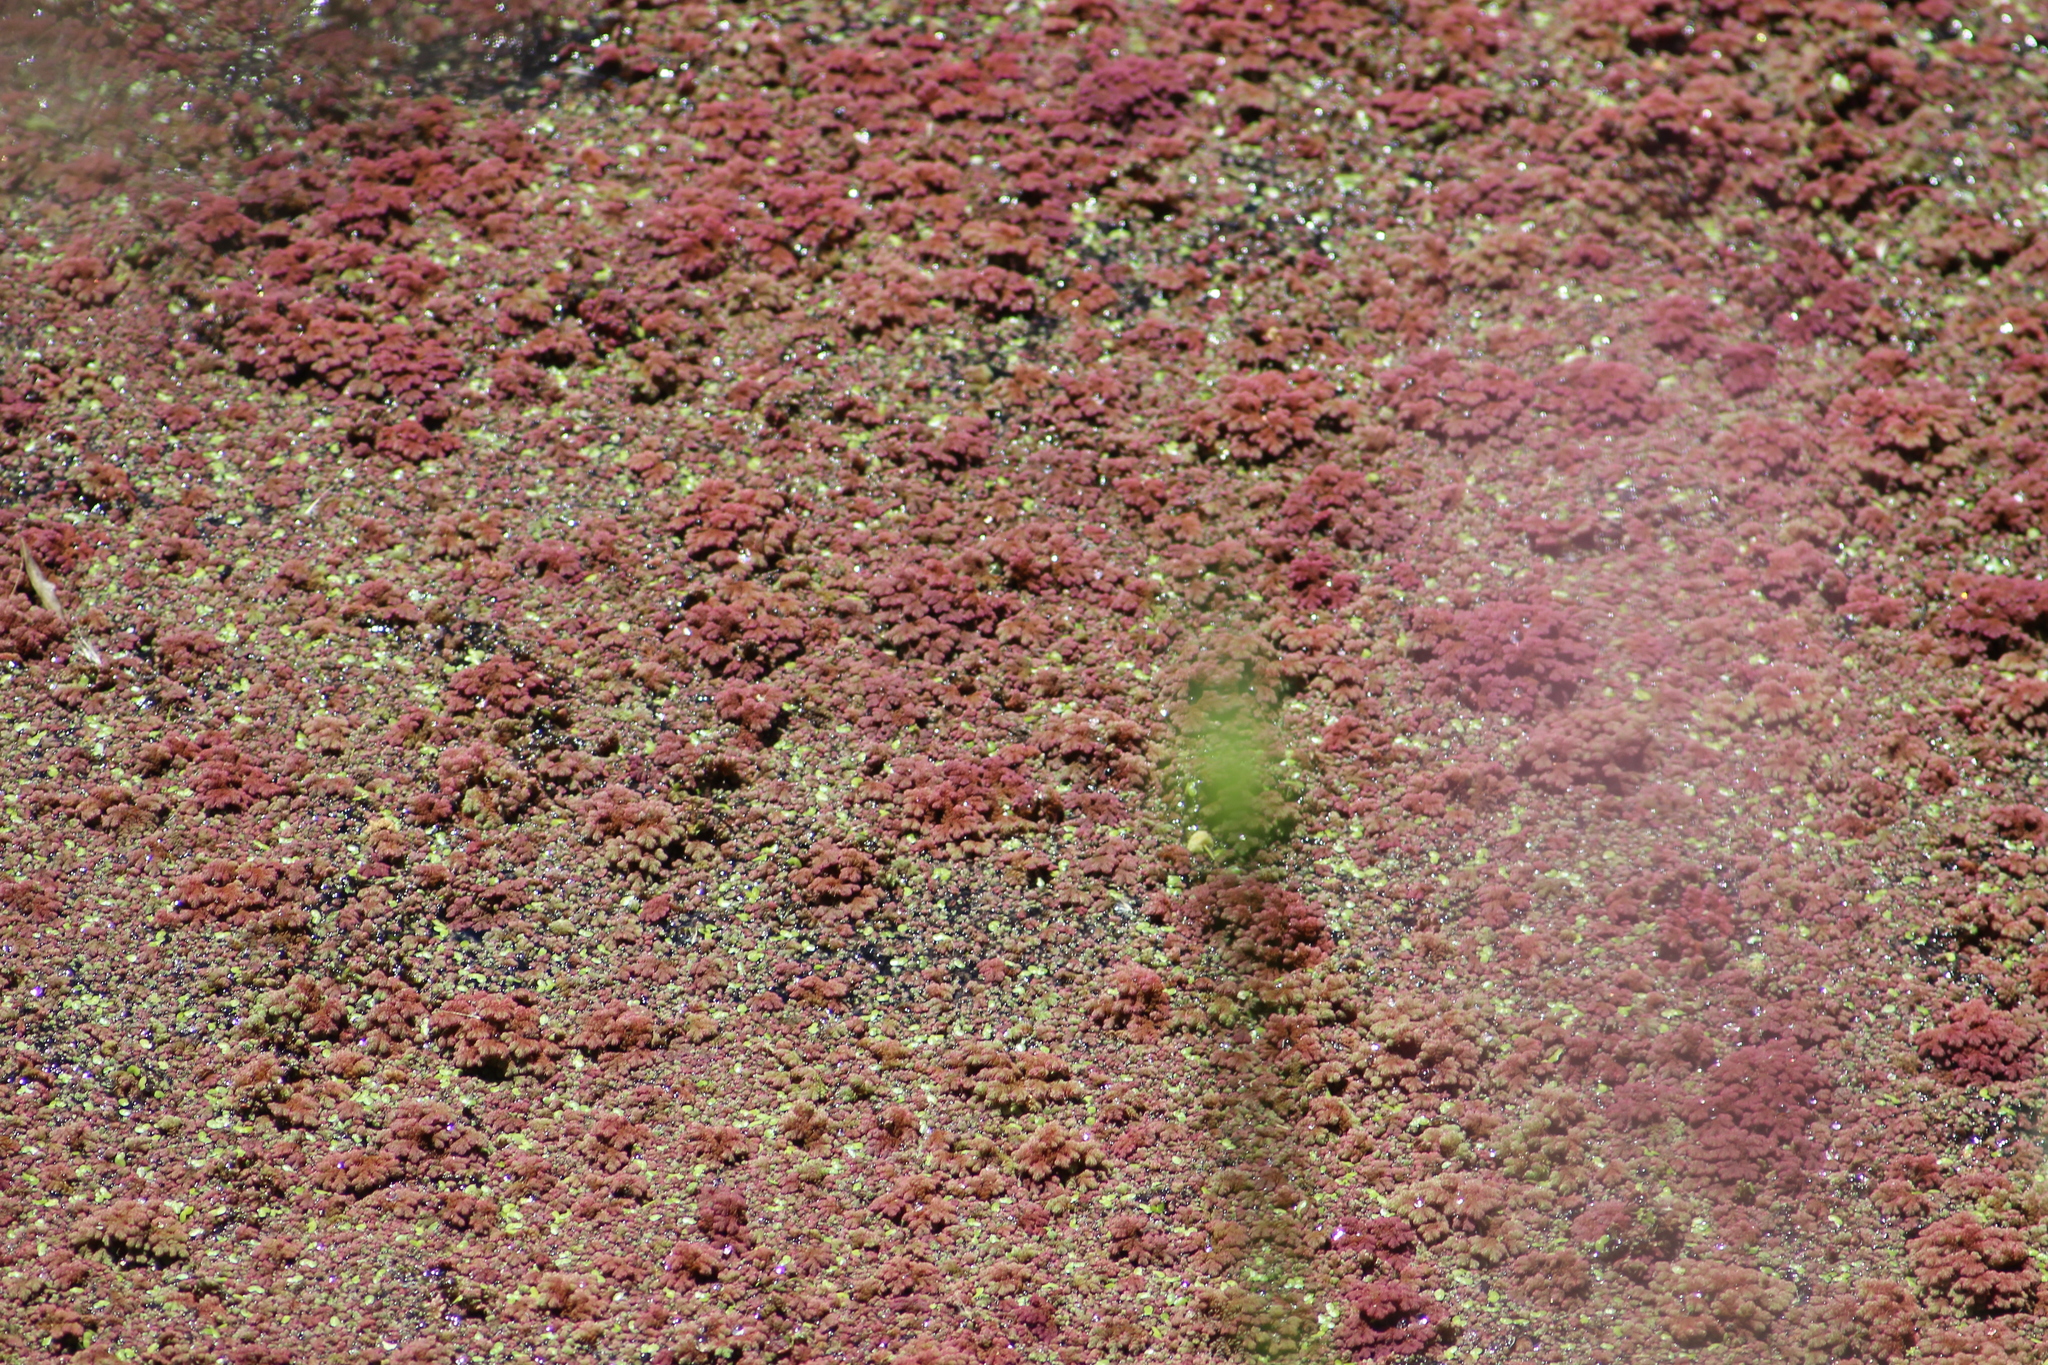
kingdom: Plantae
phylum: Tracheophyta
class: Polypodiopsida
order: Salviniales
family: Salviniaceae
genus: Azolla
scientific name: Azolla rubra
